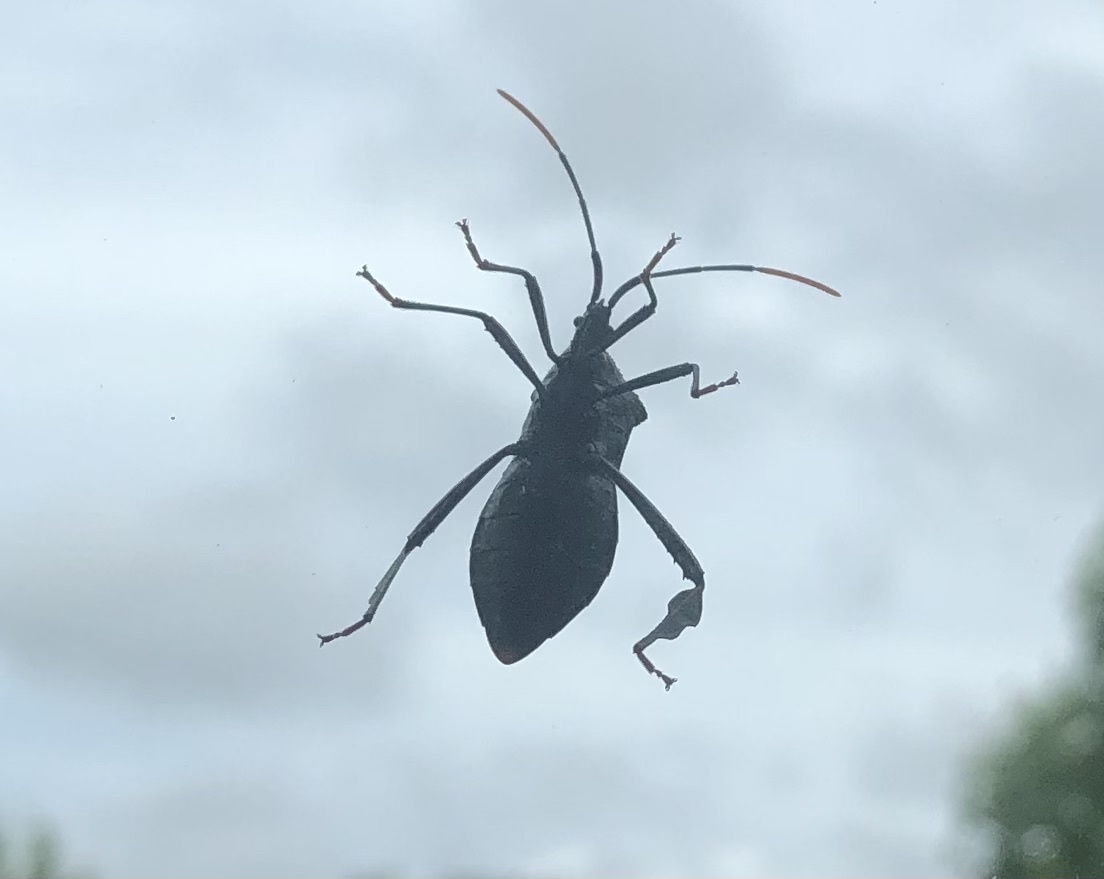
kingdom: Animalia
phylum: Arthropoda
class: Insecta
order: Hemiptera
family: Coreidae
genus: Acanthocephala
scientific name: Acanthocephala terminalis
